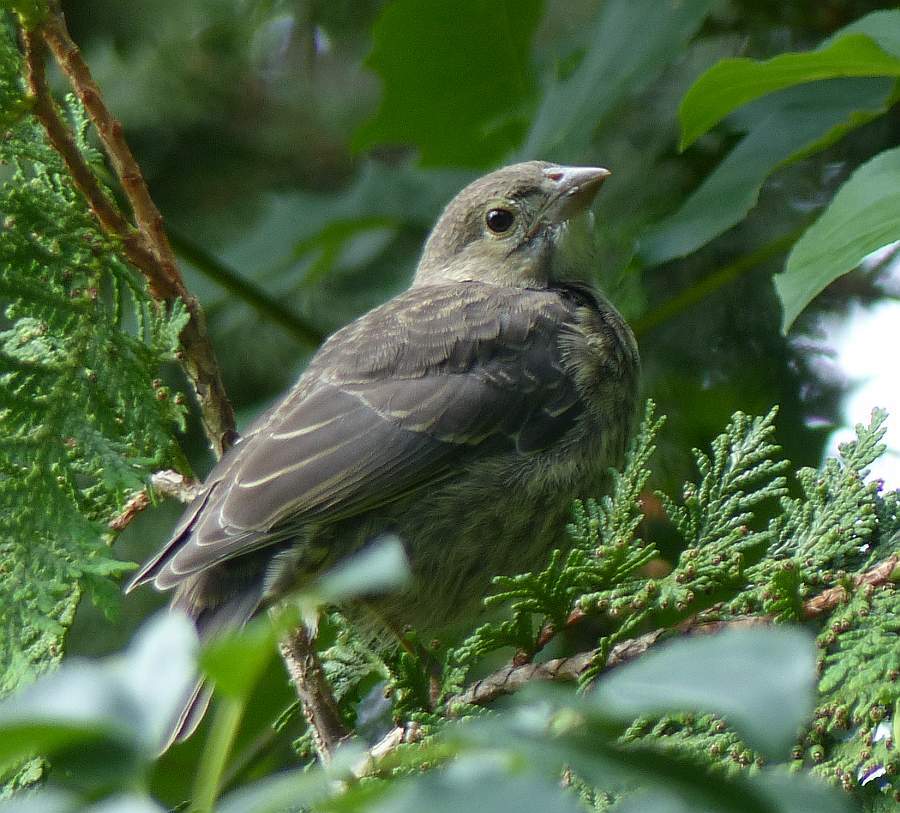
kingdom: Animalia
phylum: Chordata
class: Aves
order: Passeriformes
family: Icteridae
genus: Molothrus
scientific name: Molothrus ater
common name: Brown-headed cowbird
